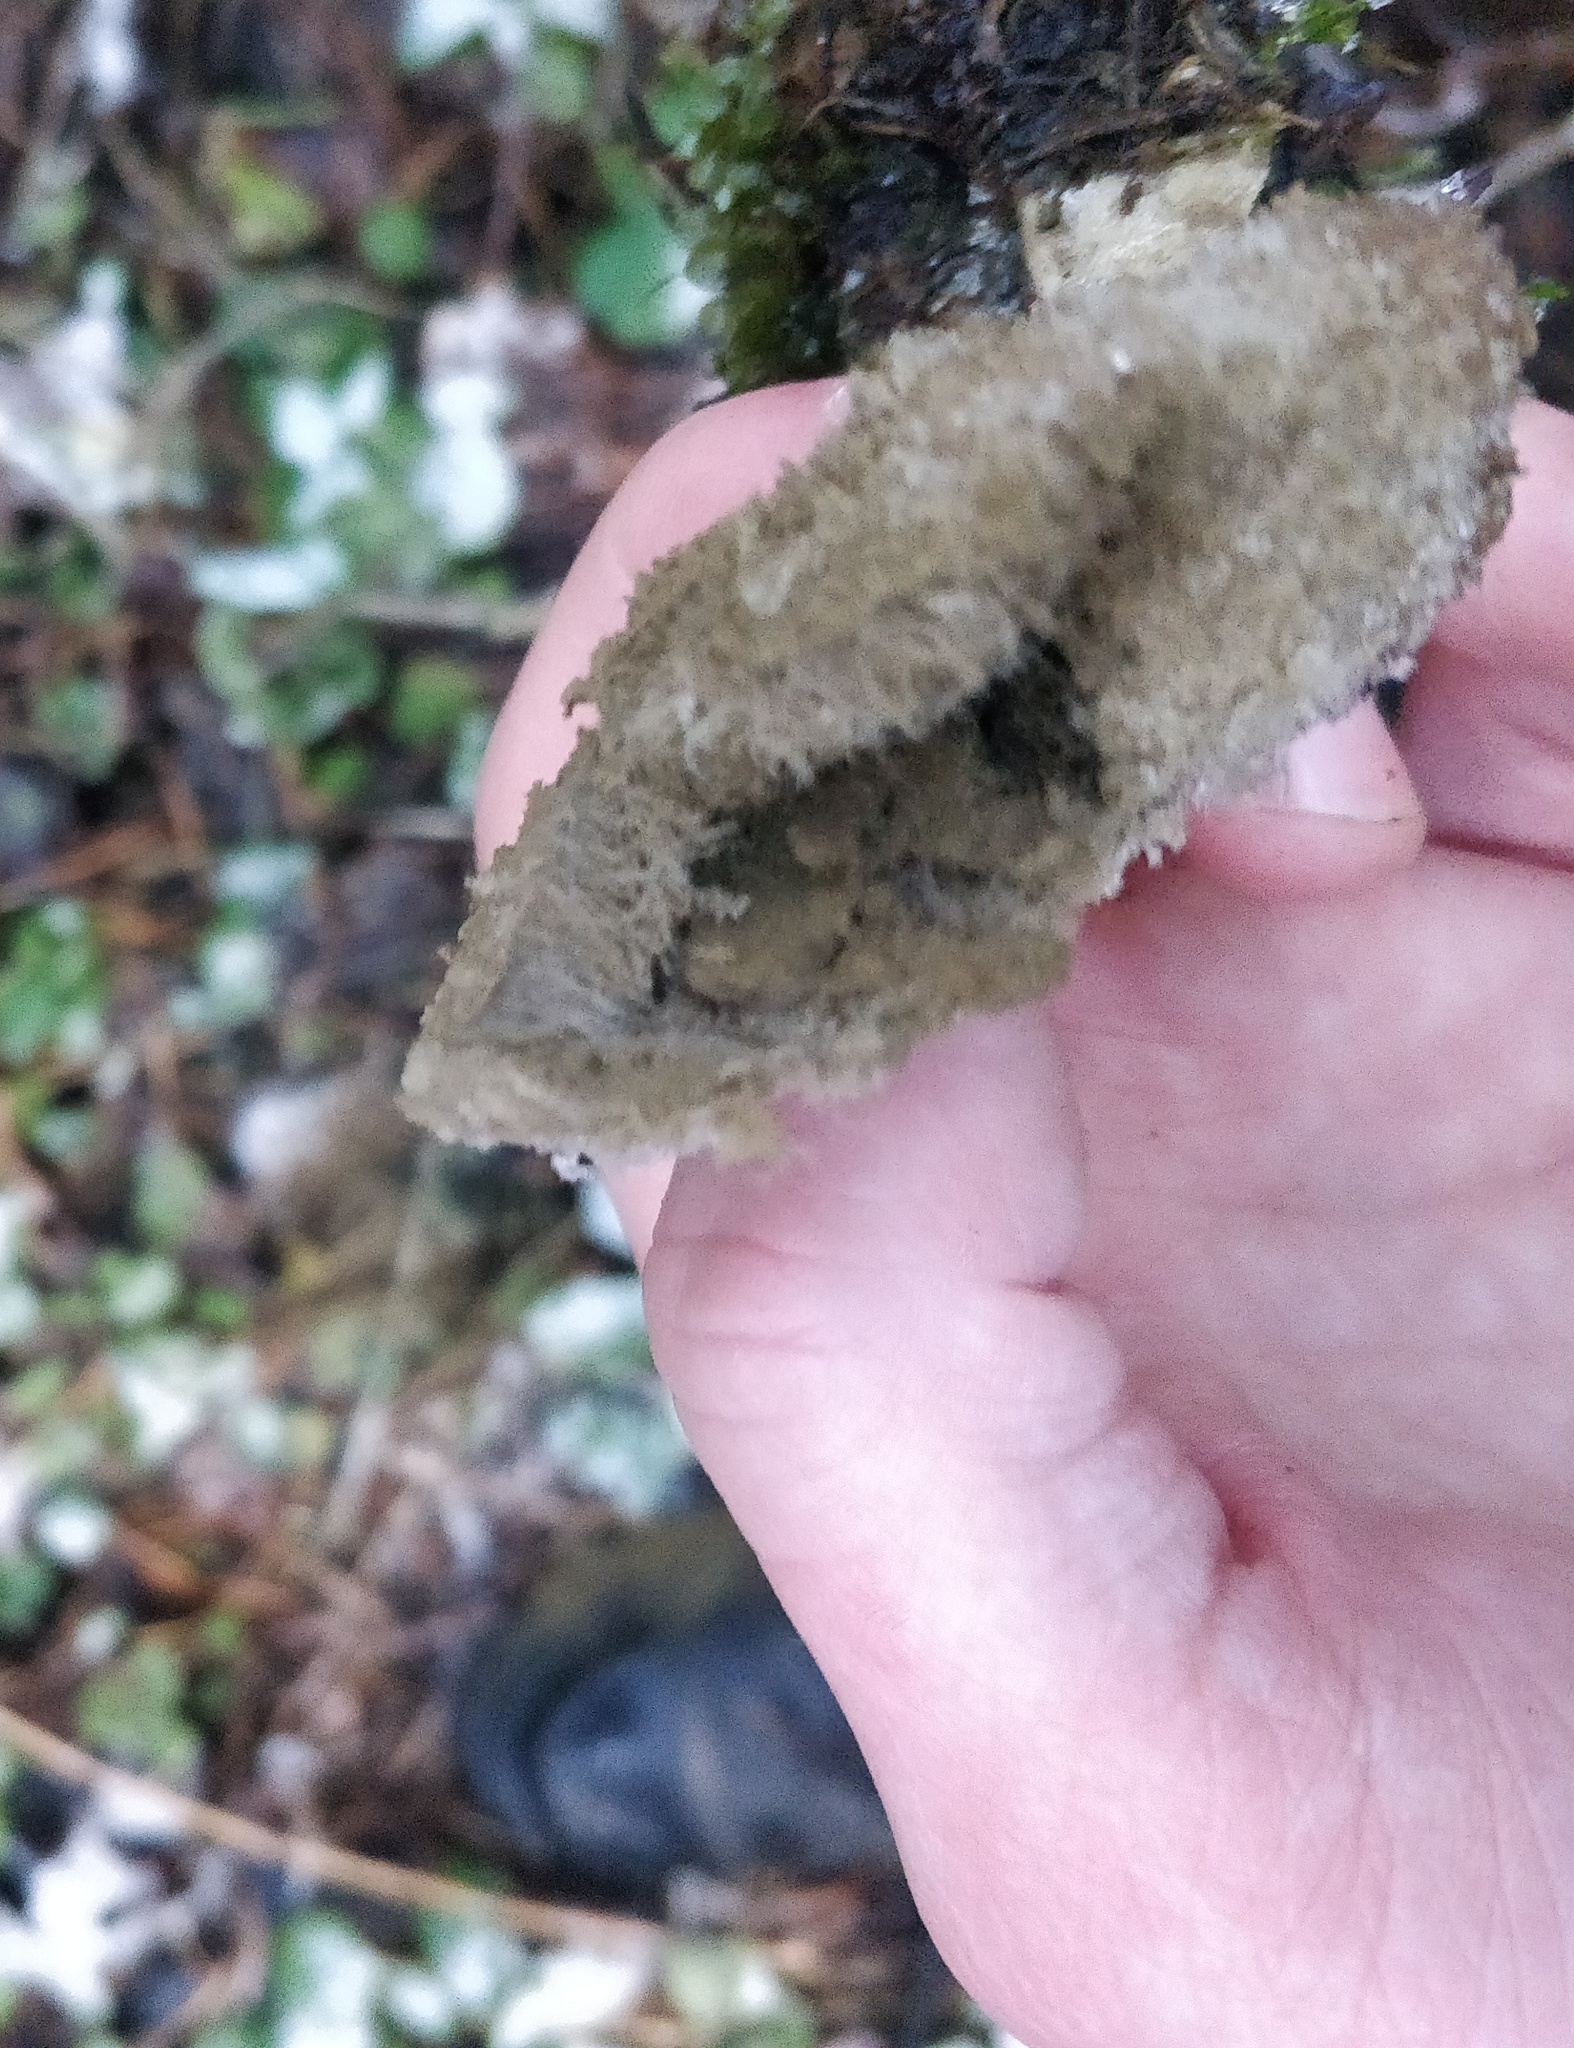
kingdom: Fungi
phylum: Basidiomycota
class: Agaricomycetes
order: Agaricales
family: Lycoperdaceae
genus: Lycoperdon
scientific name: Lycoperdon excipuliforme
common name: Pestle puffball
